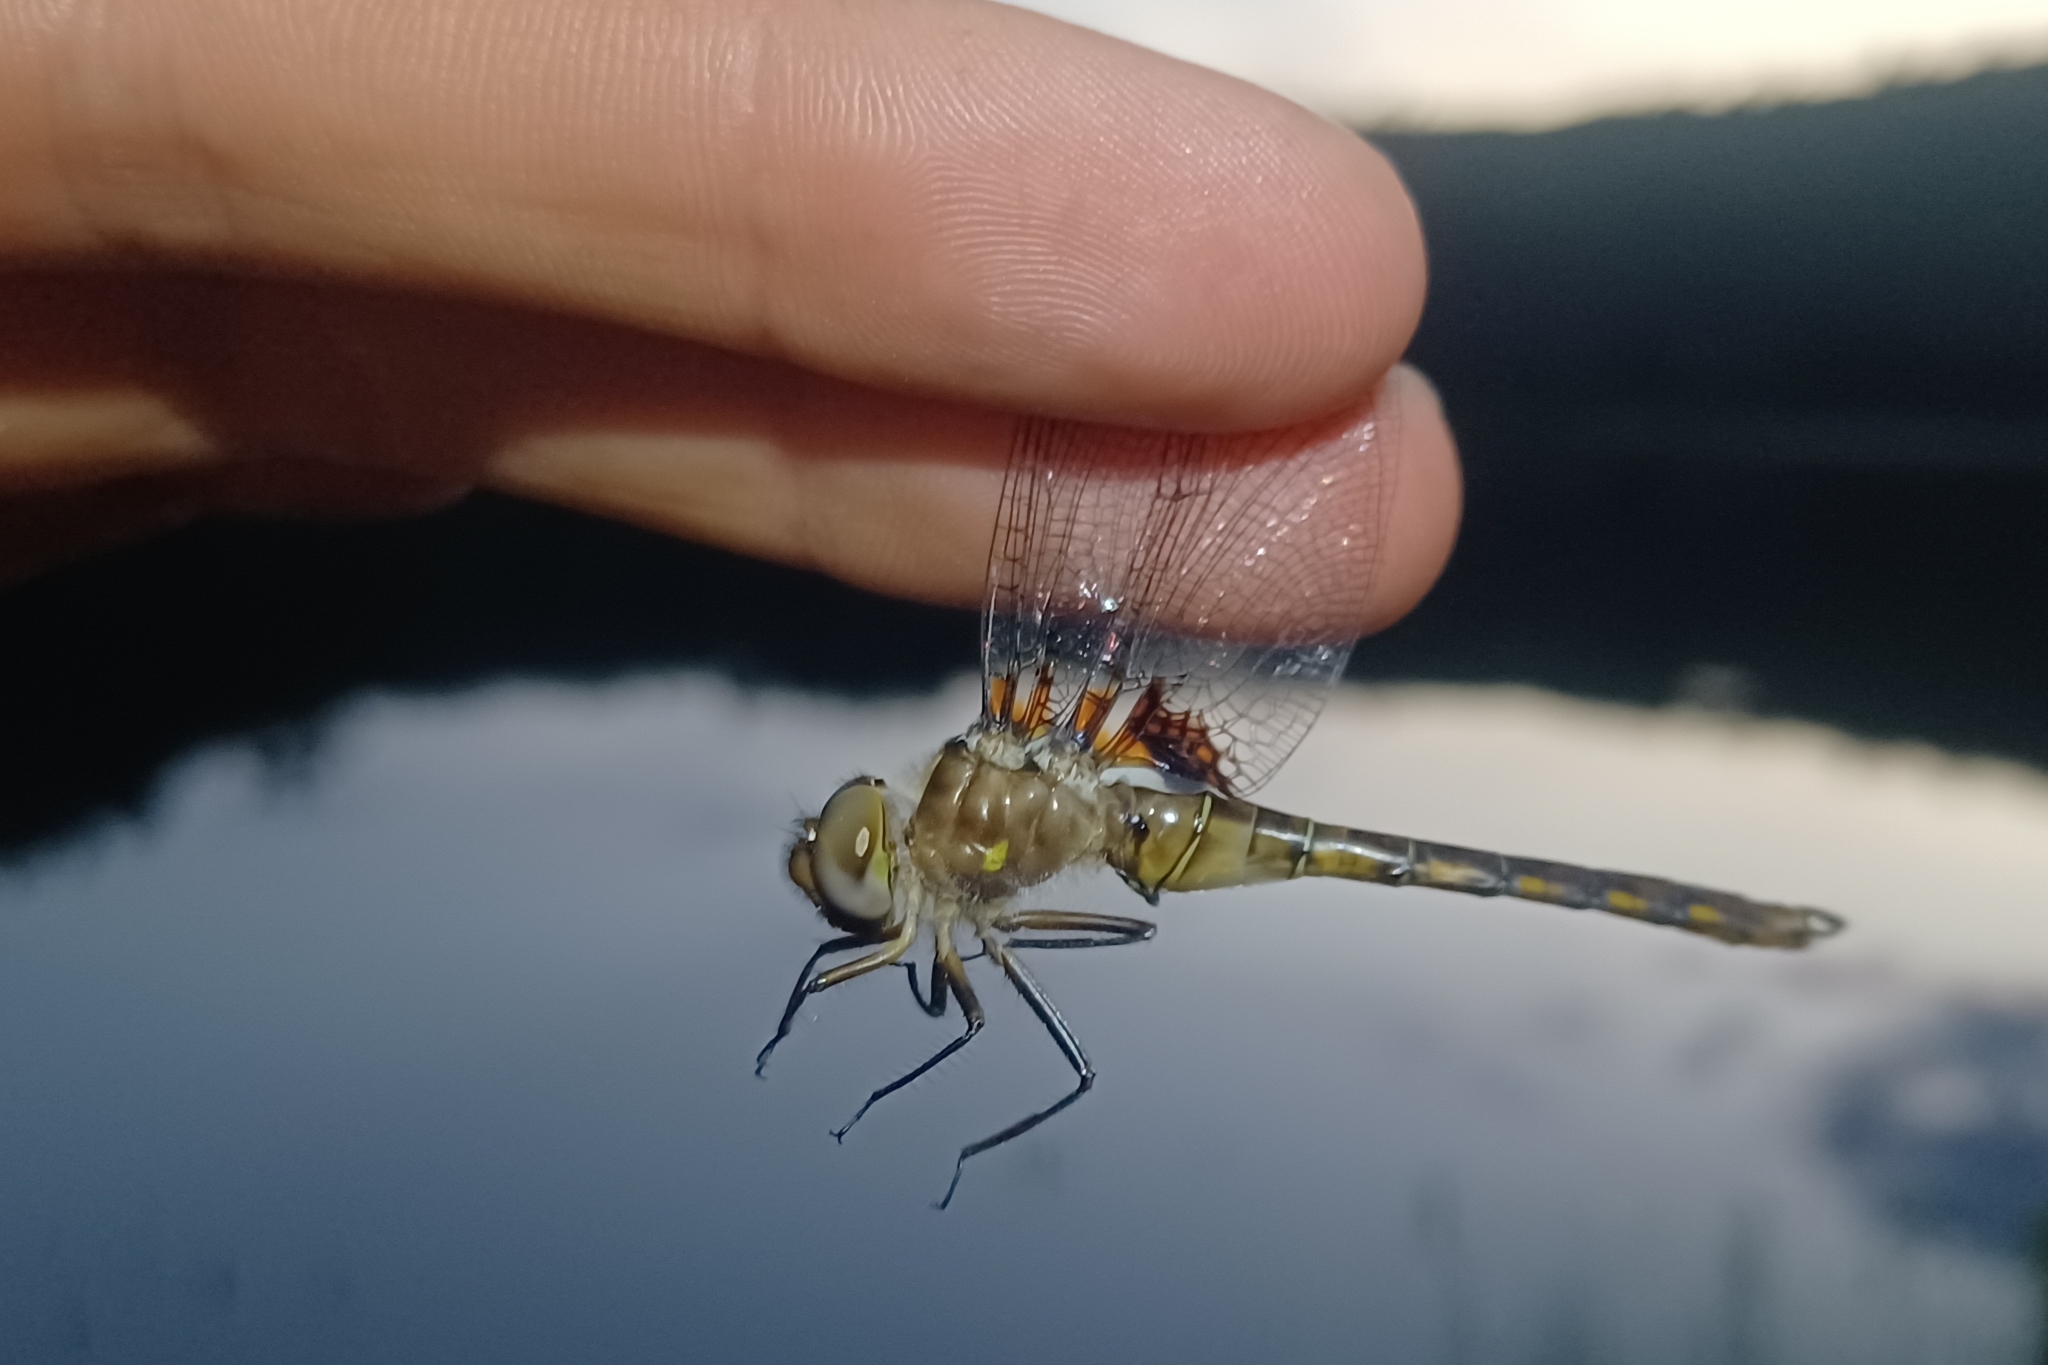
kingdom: Animalia
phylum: Arthropoda
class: Insecta
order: Odonata
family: Corduliidae
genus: Neurocordulia
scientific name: Neurocordulia yamaskanensis
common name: Stygian shadowdragon
